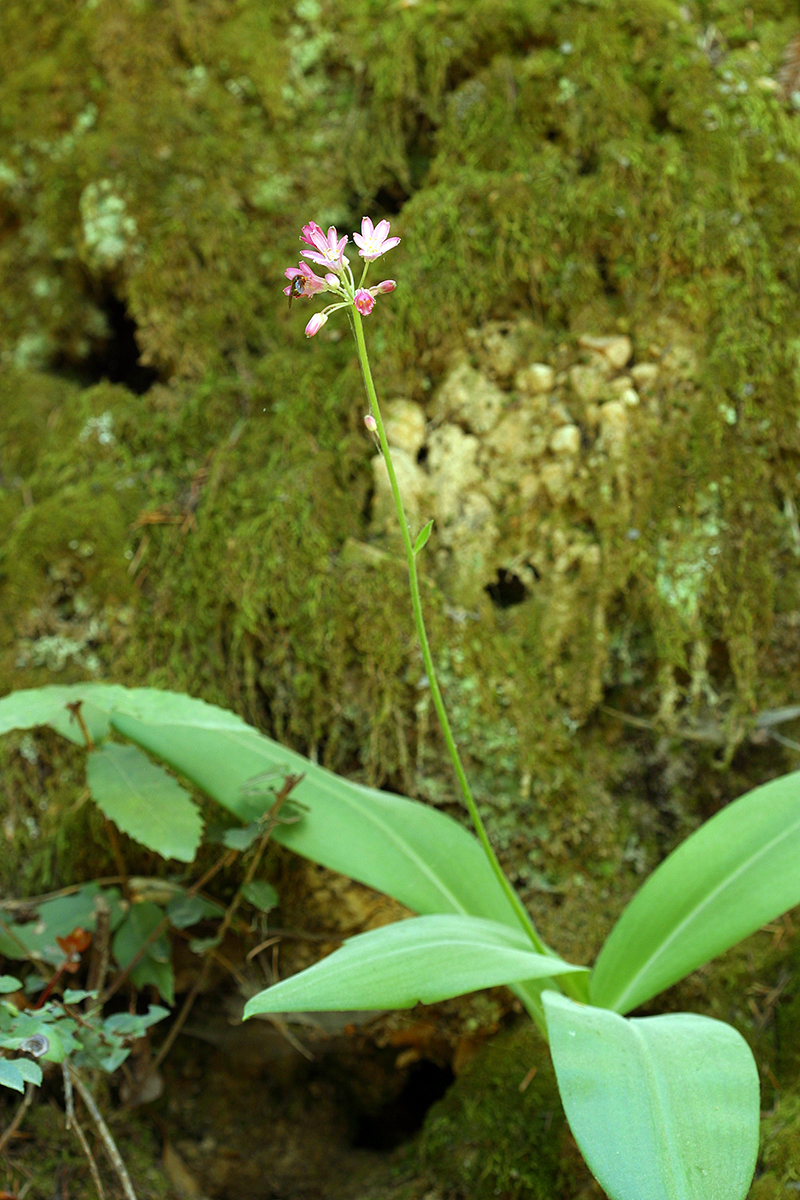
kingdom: Plantae
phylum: Tracheophyta
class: Liliopsida
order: Liliales
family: Liliaceae
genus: Clintonia
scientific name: Clintonia andrewsiana
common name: Red clintonia
